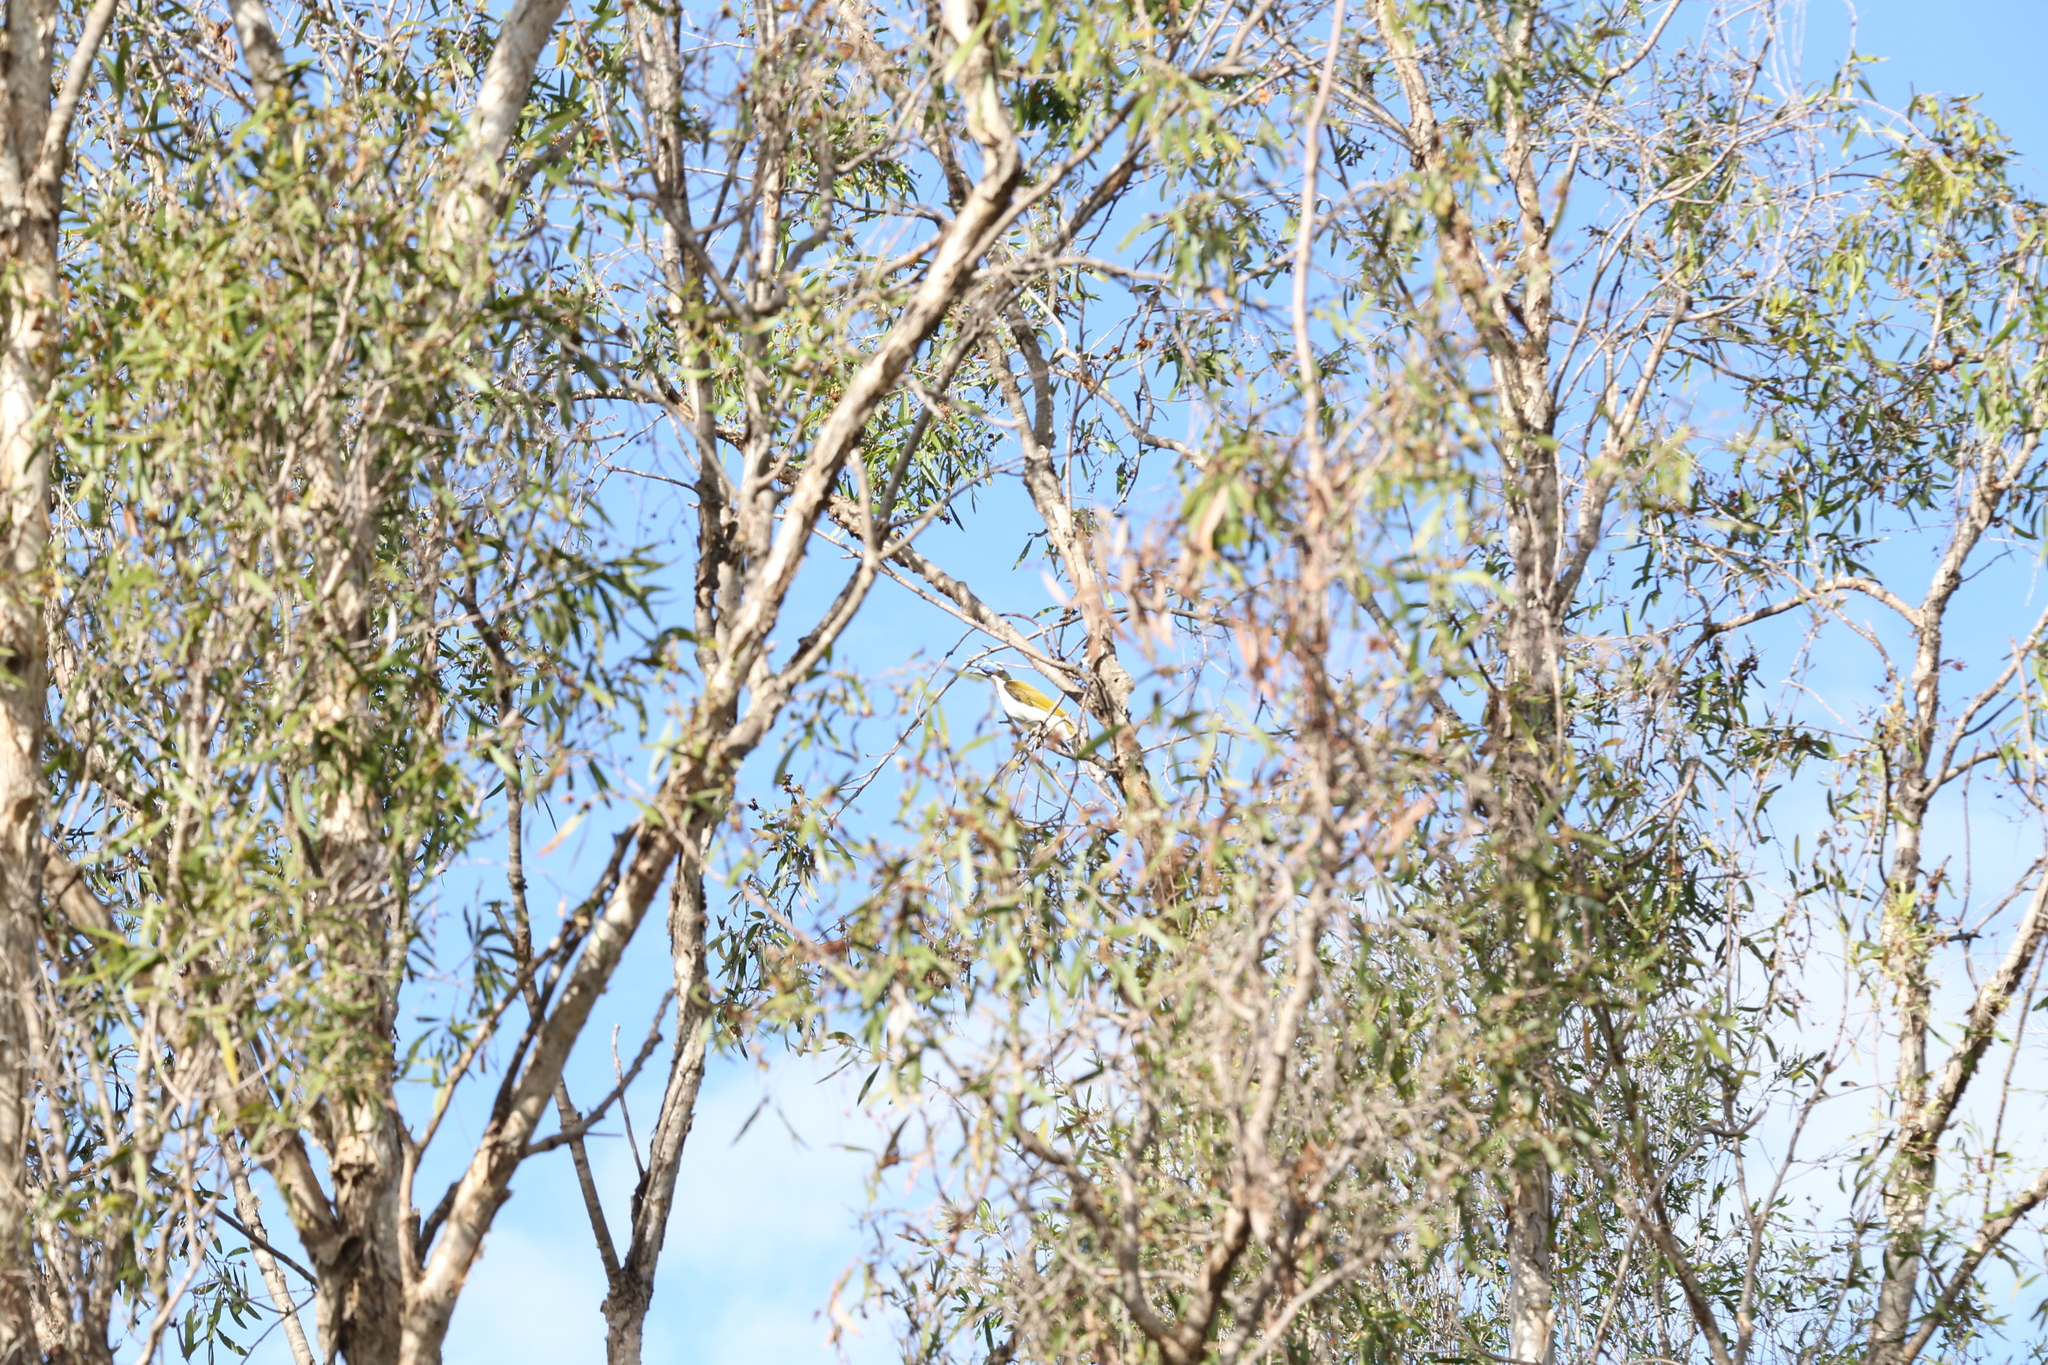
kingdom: Animalia
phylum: Chordata
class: Aves
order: Passeriformes
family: Meliphagidae
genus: Entomyzon
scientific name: Entomyzon cyanotis
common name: Blue-faced honeyeater
